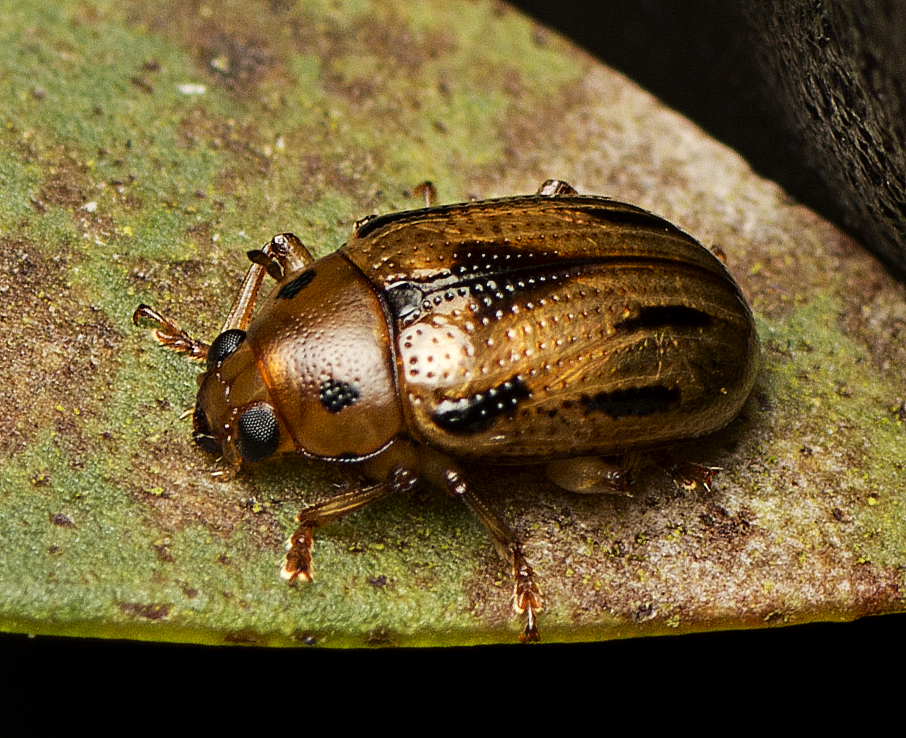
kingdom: Animalia
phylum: Arthropoda
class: Insecta
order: Coleoptera
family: Chrysomelidae
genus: Rhyparida
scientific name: Rhyparida
